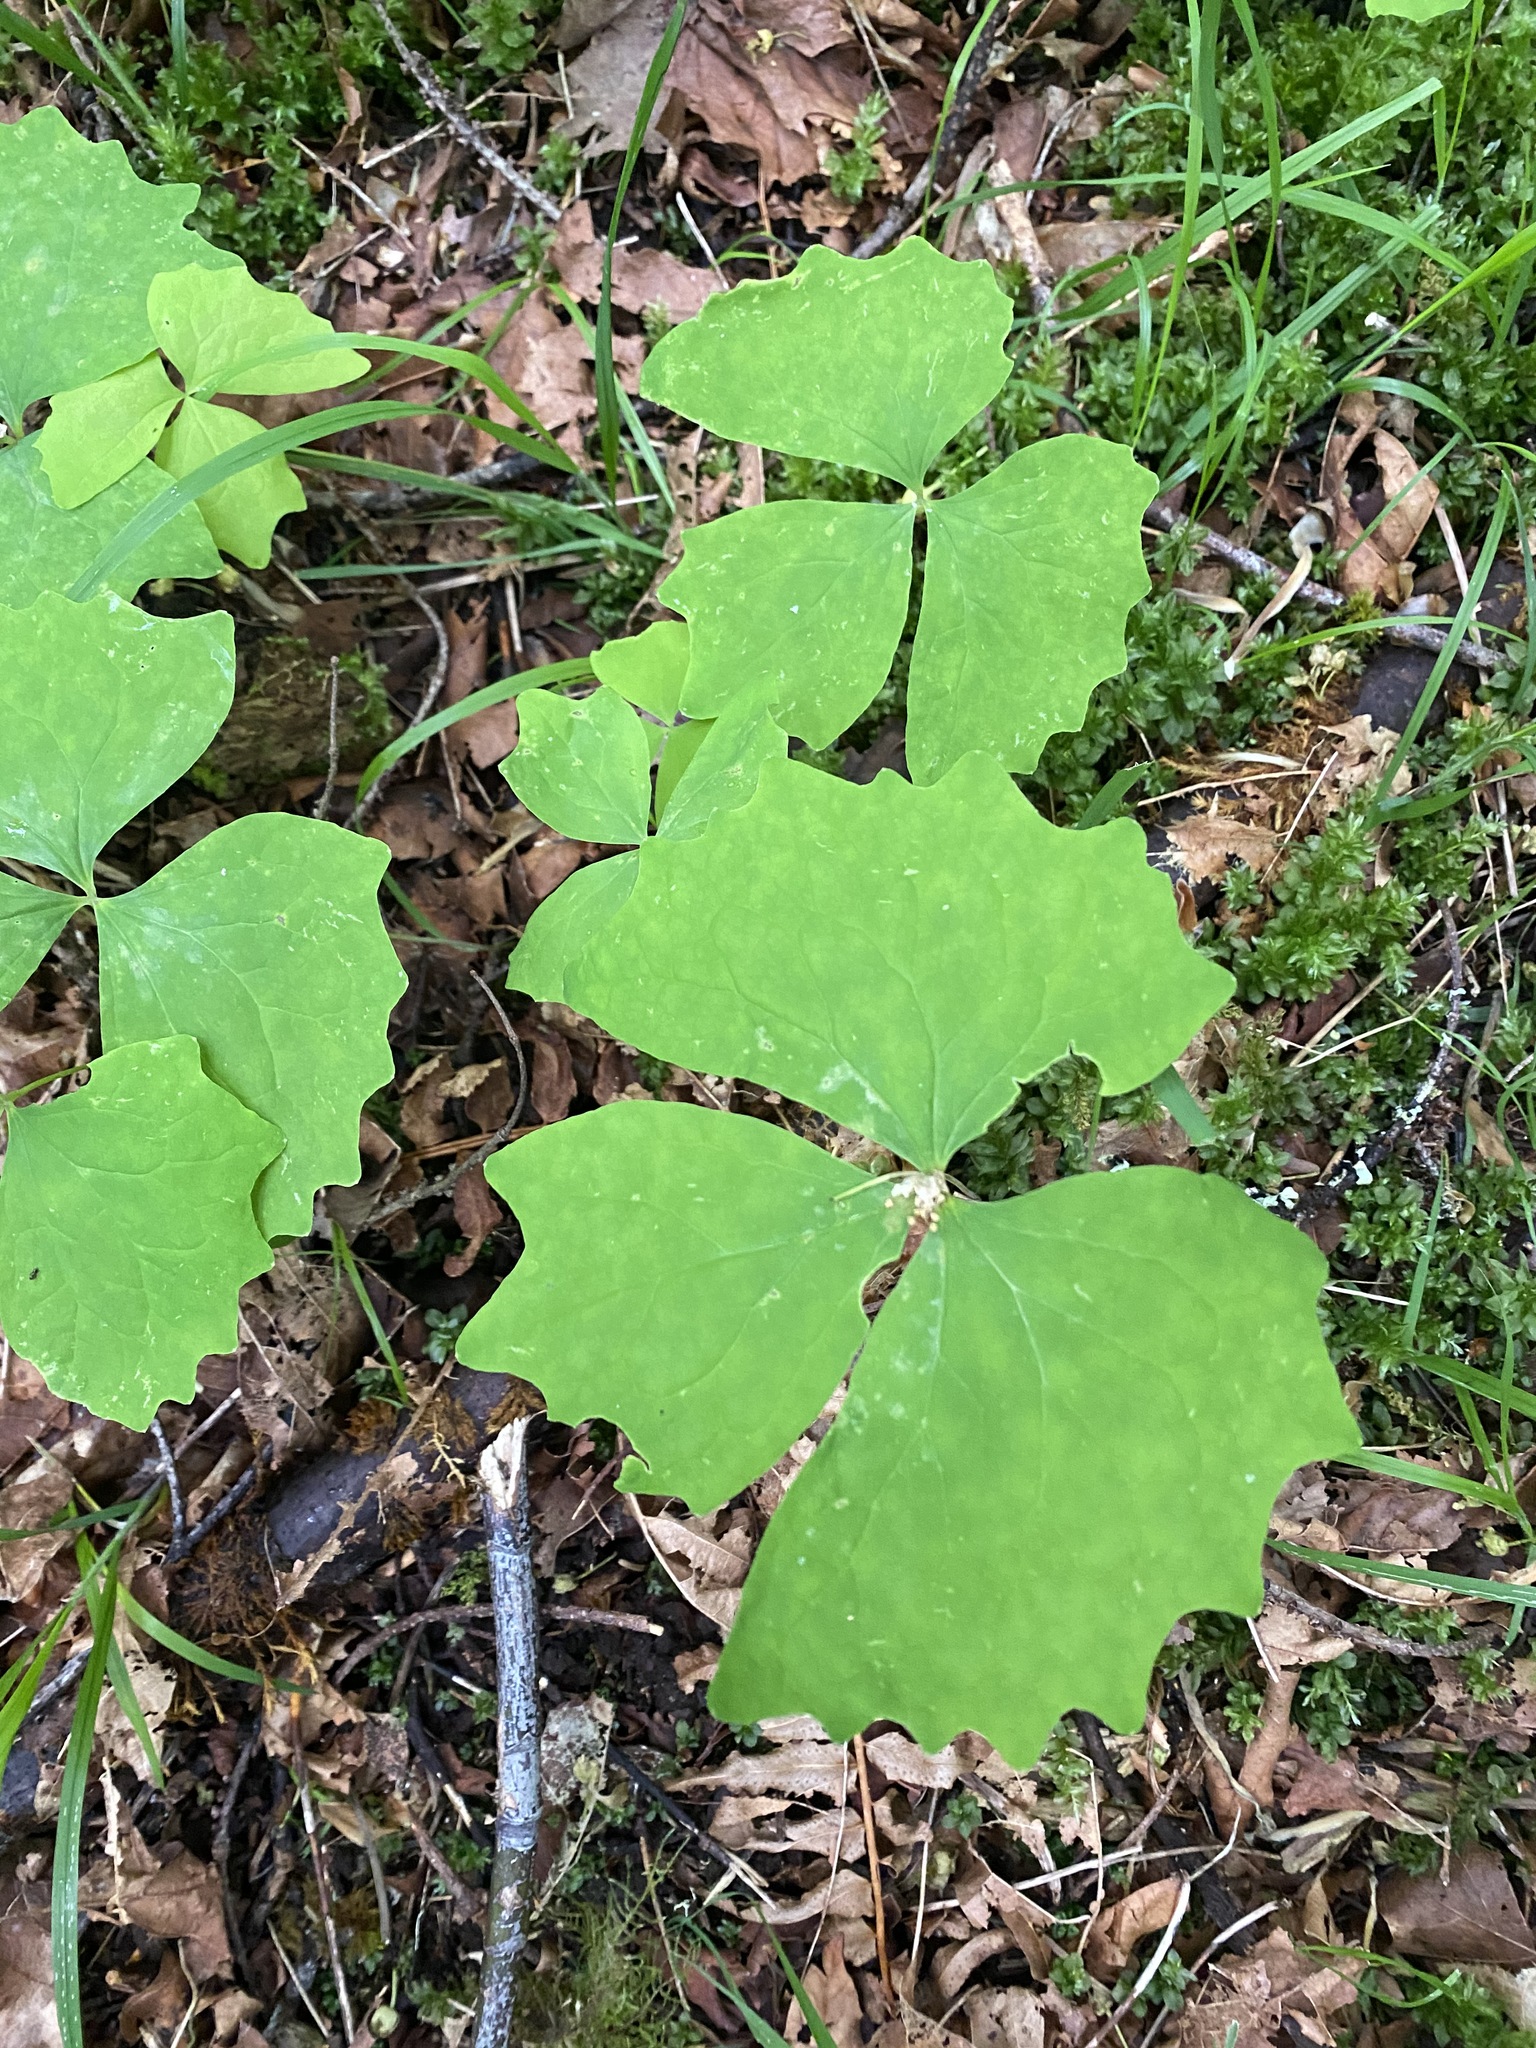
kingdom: Plantae
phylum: Tracheophyta
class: Magnoliopsida
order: Ranunculales
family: Berberidaceae
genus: Achlys
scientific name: Achlys triphylla
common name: Vanilla-leaf
